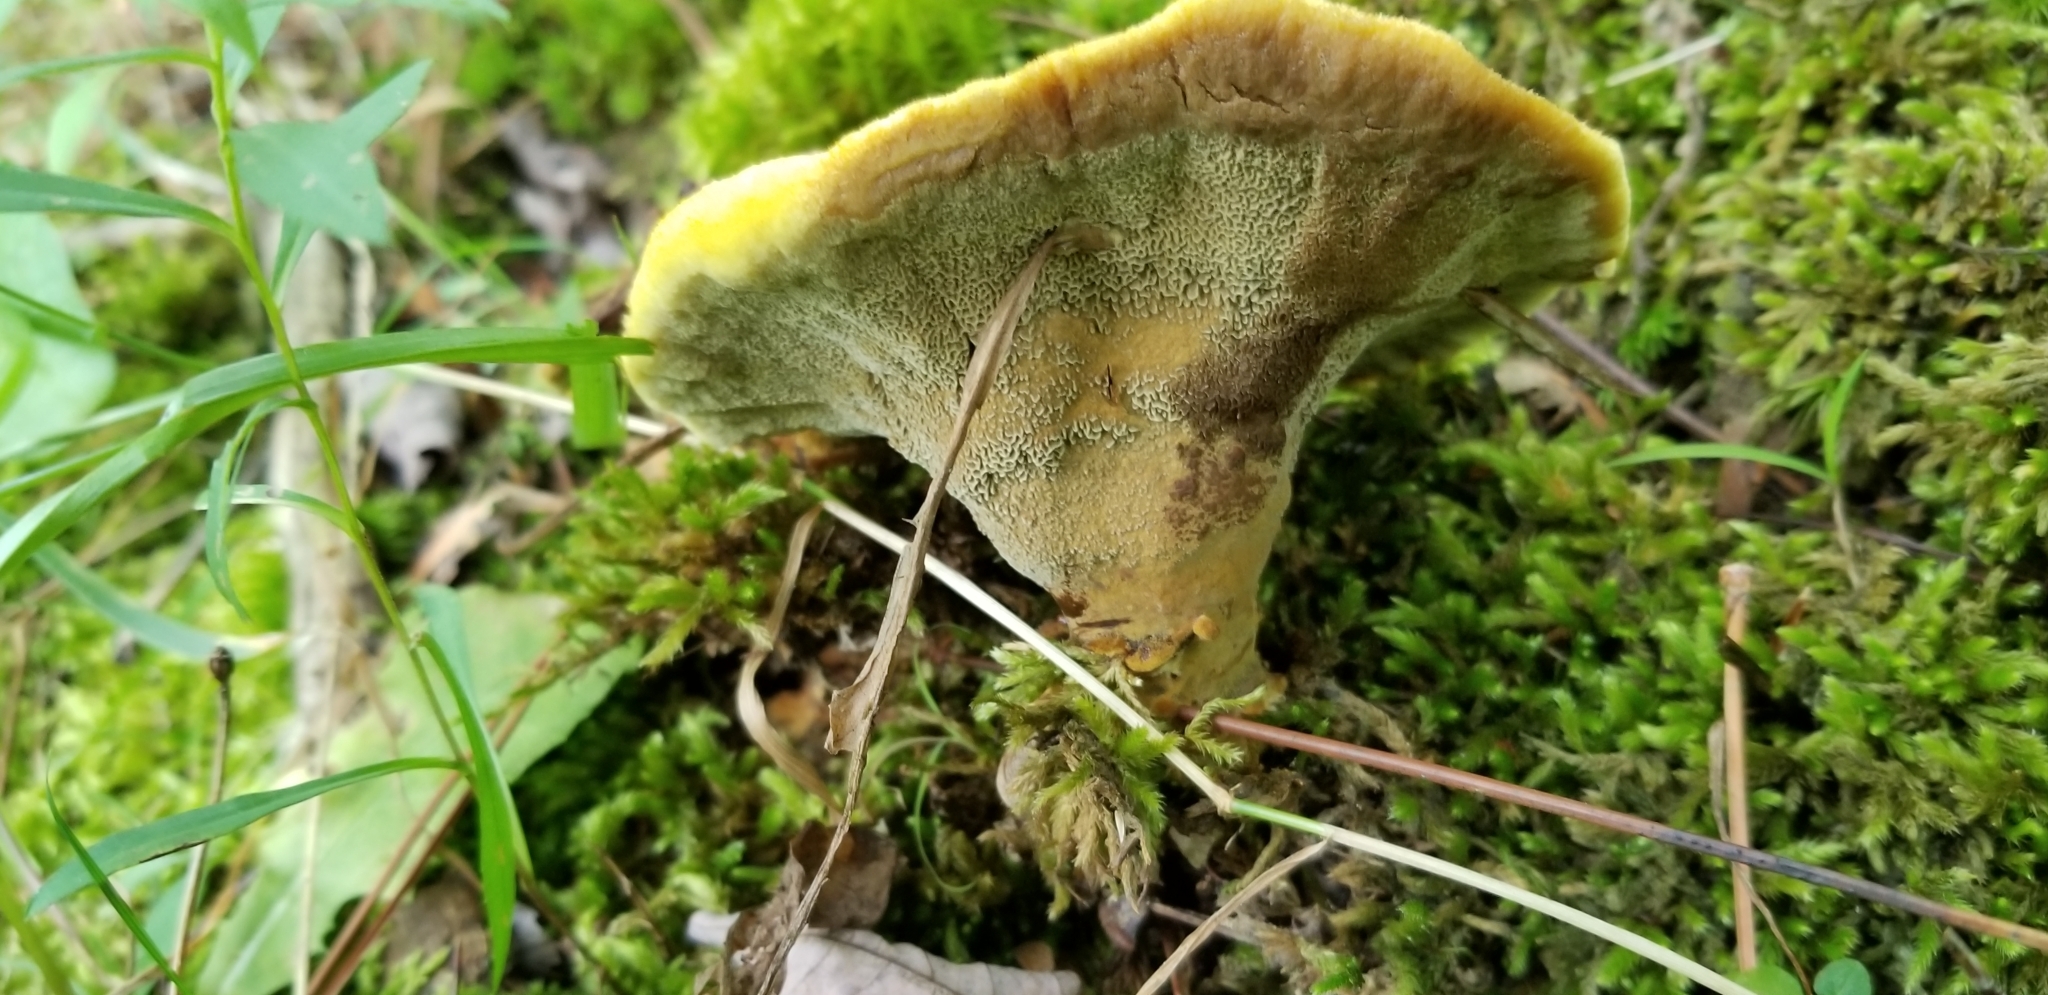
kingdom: Fungi
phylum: Basidiomycota
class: Agaricomycetes
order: Polyporales
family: Laetiporaceae
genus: Phaeolus
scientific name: Phaeolus schweinitzii
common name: Dyer's mazegill
